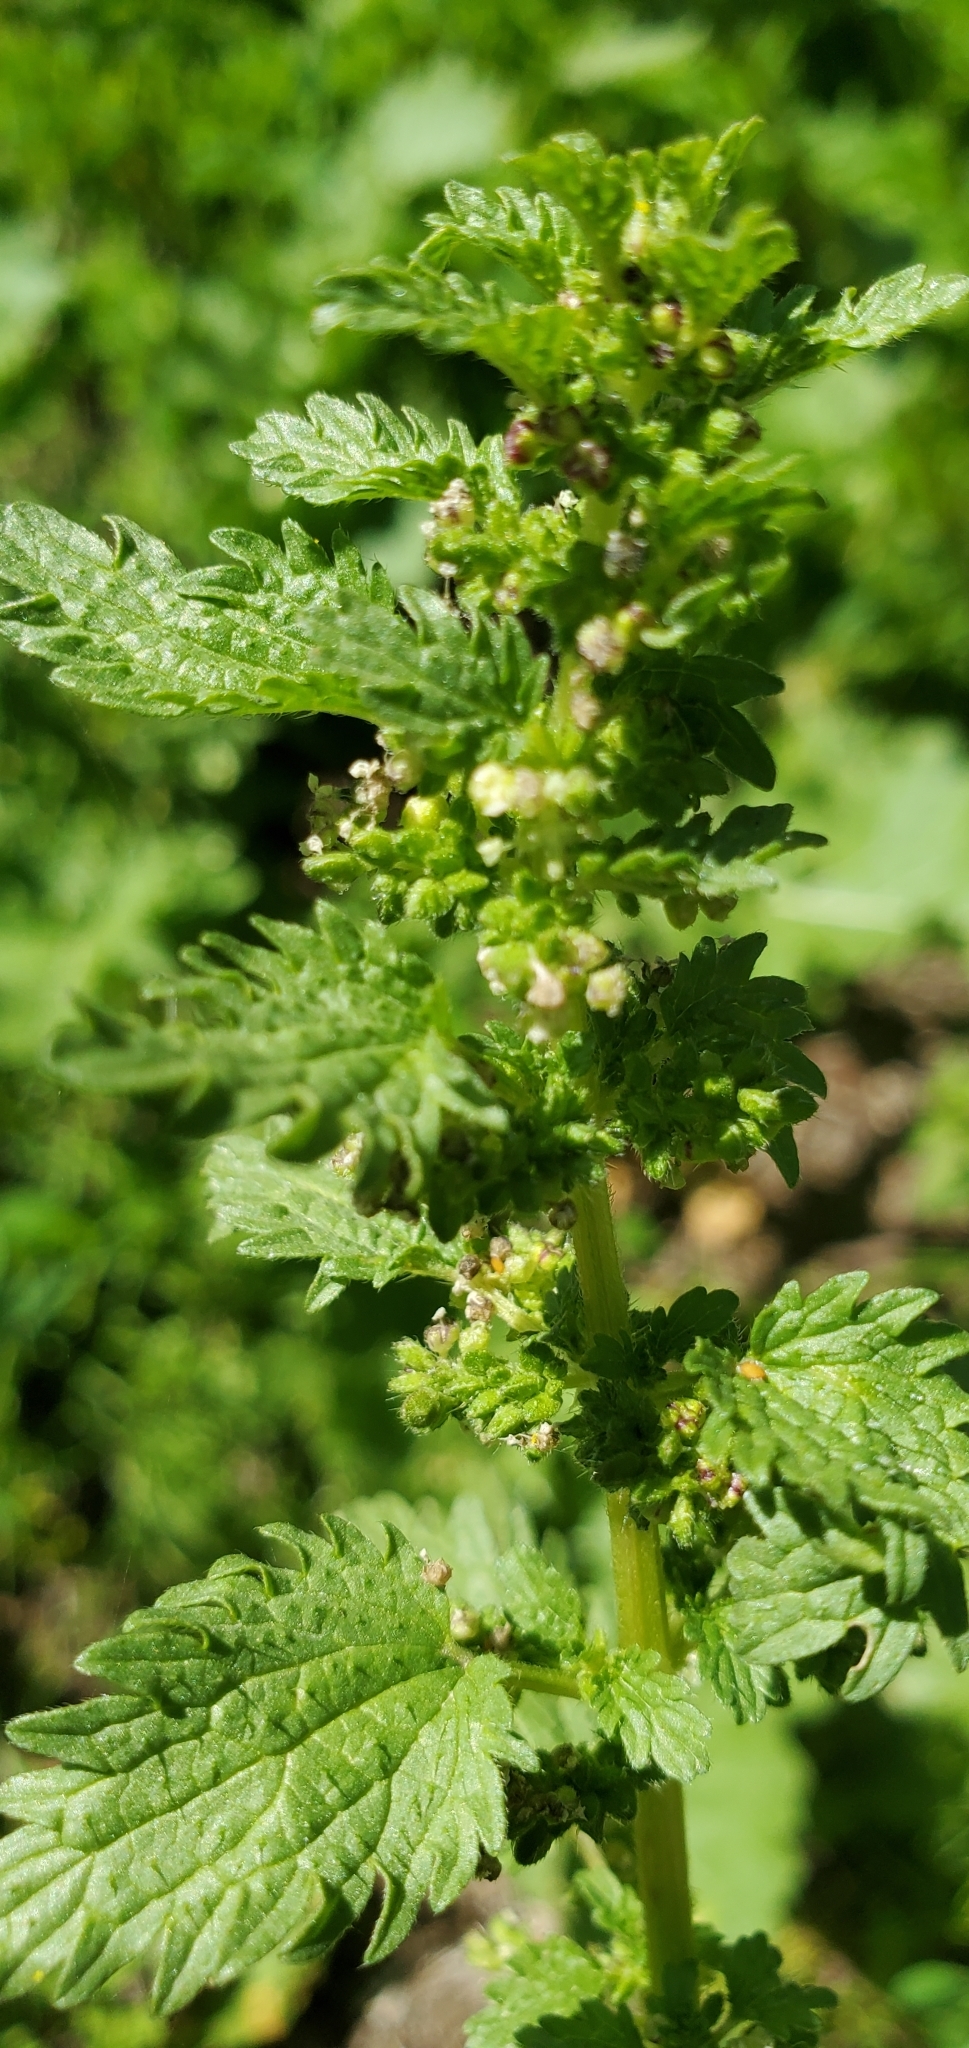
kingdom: Plantae
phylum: Tracheophyta
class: Magnoliopsida
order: Rosales
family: Urticaceae
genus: Urtica
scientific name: Urtica urens
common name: Dwarf nettle
